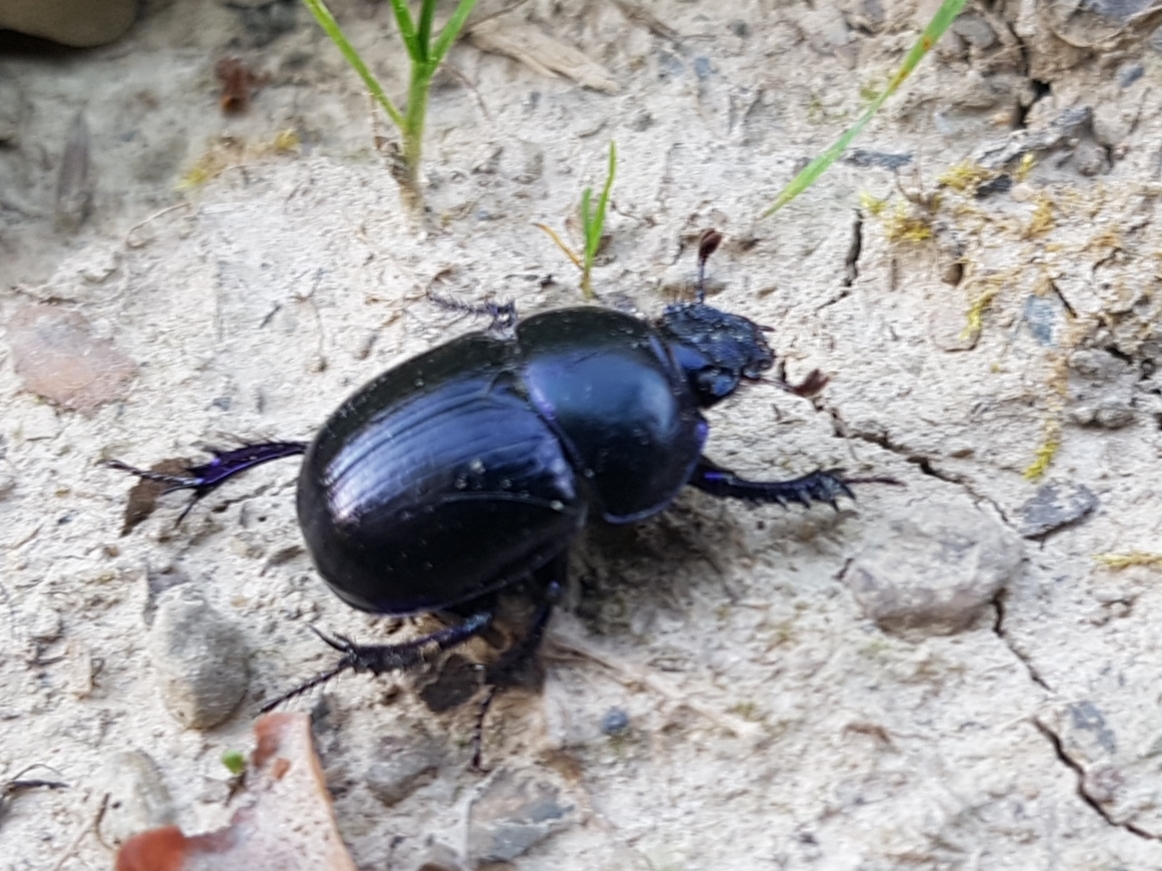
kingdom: Animalia
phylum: Arthropoda
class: Insecta
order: Coleoptera
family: Geotrupidae
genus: Anoplotrupes
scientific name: Anoplotrupes stercorosus
